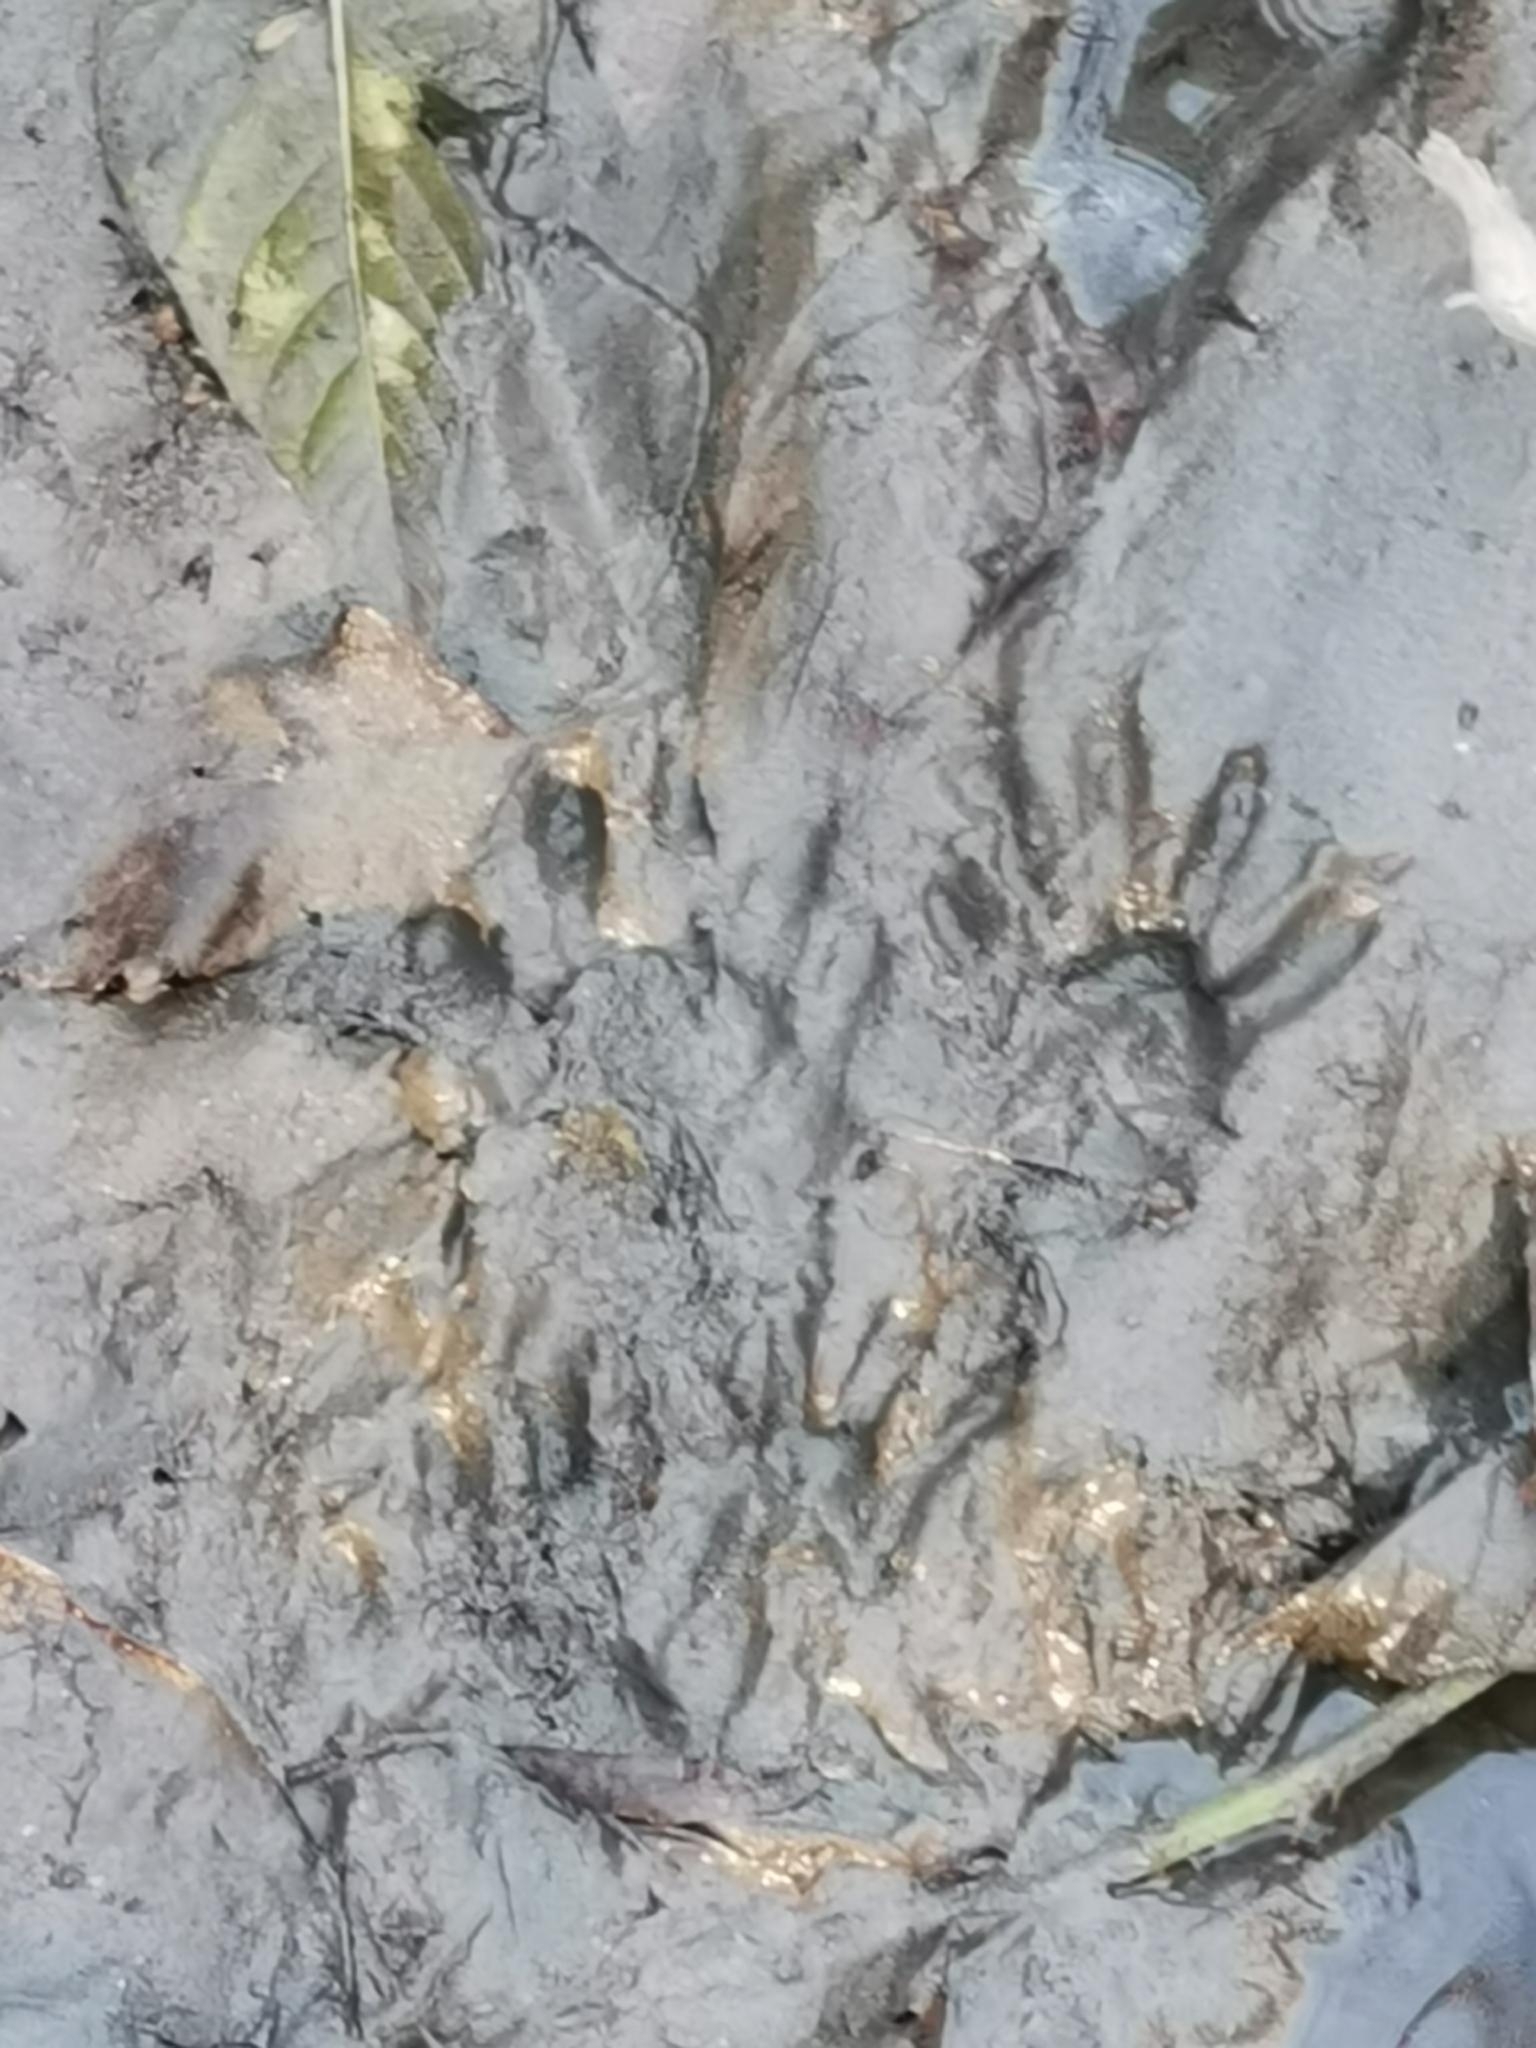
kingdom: Animalia
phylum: Chordata
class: Mammalia
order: Carnivora
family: Procyonidae
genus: Procyon
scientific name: Procyon lotor
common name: Raccoon
